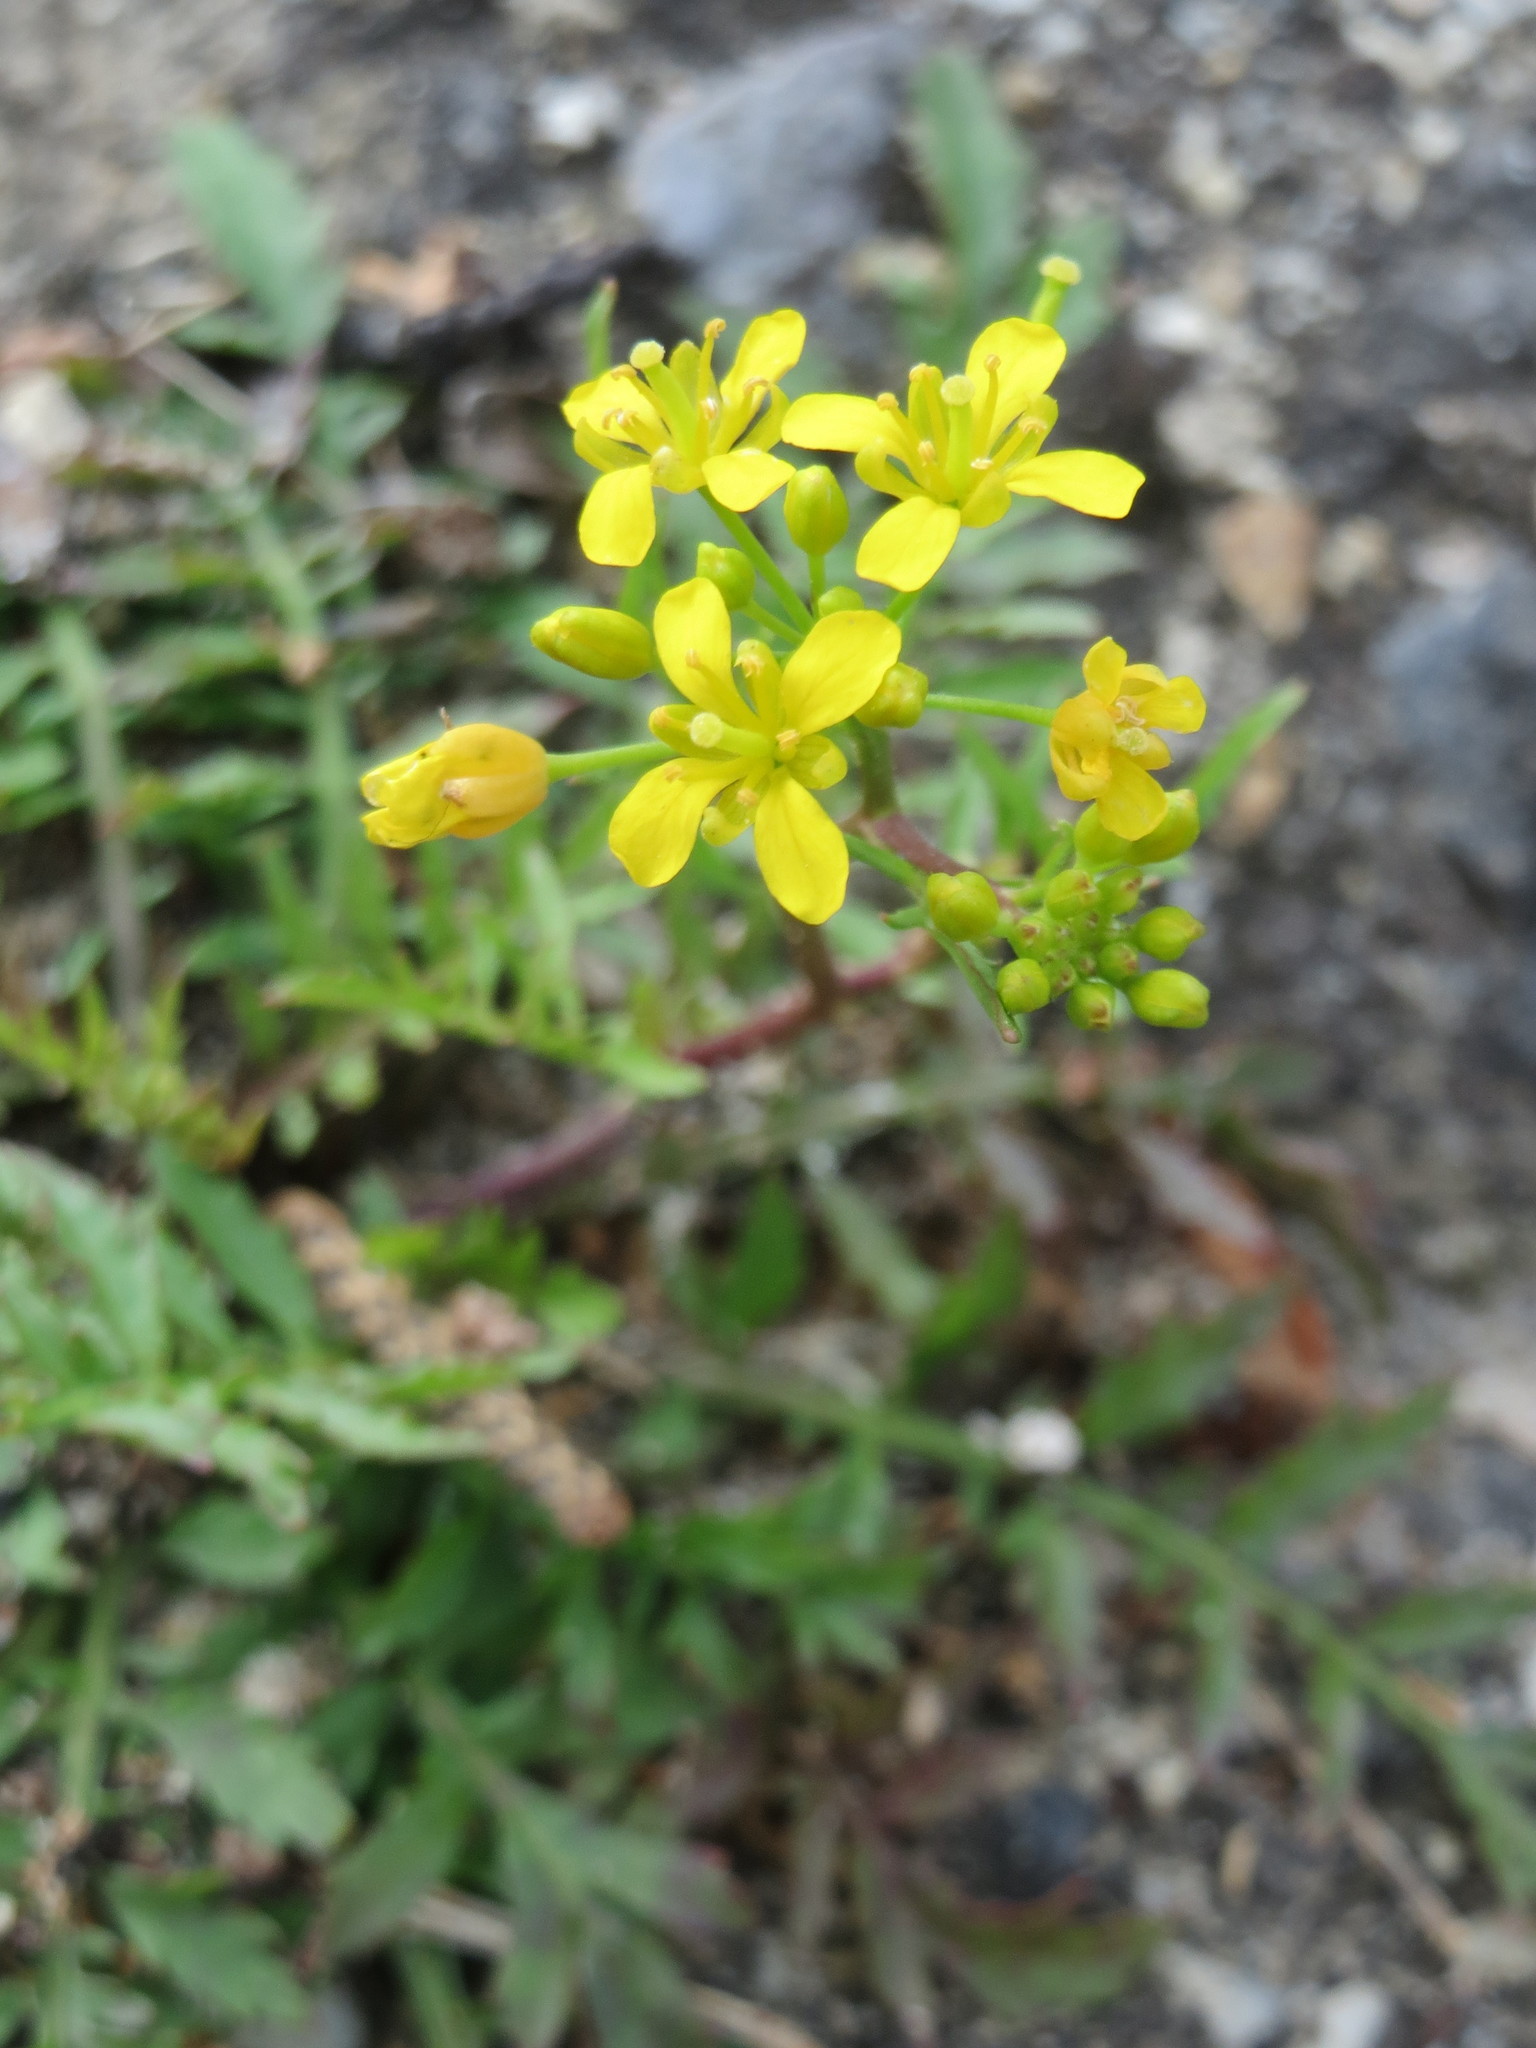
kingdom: Plantae
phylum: Tracheophyta
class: Magnoliopsida
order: Brassicales
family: Brassicaceae
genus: Rorippa
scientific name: Rorippa sylvestris
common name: Creeping yellowcress
